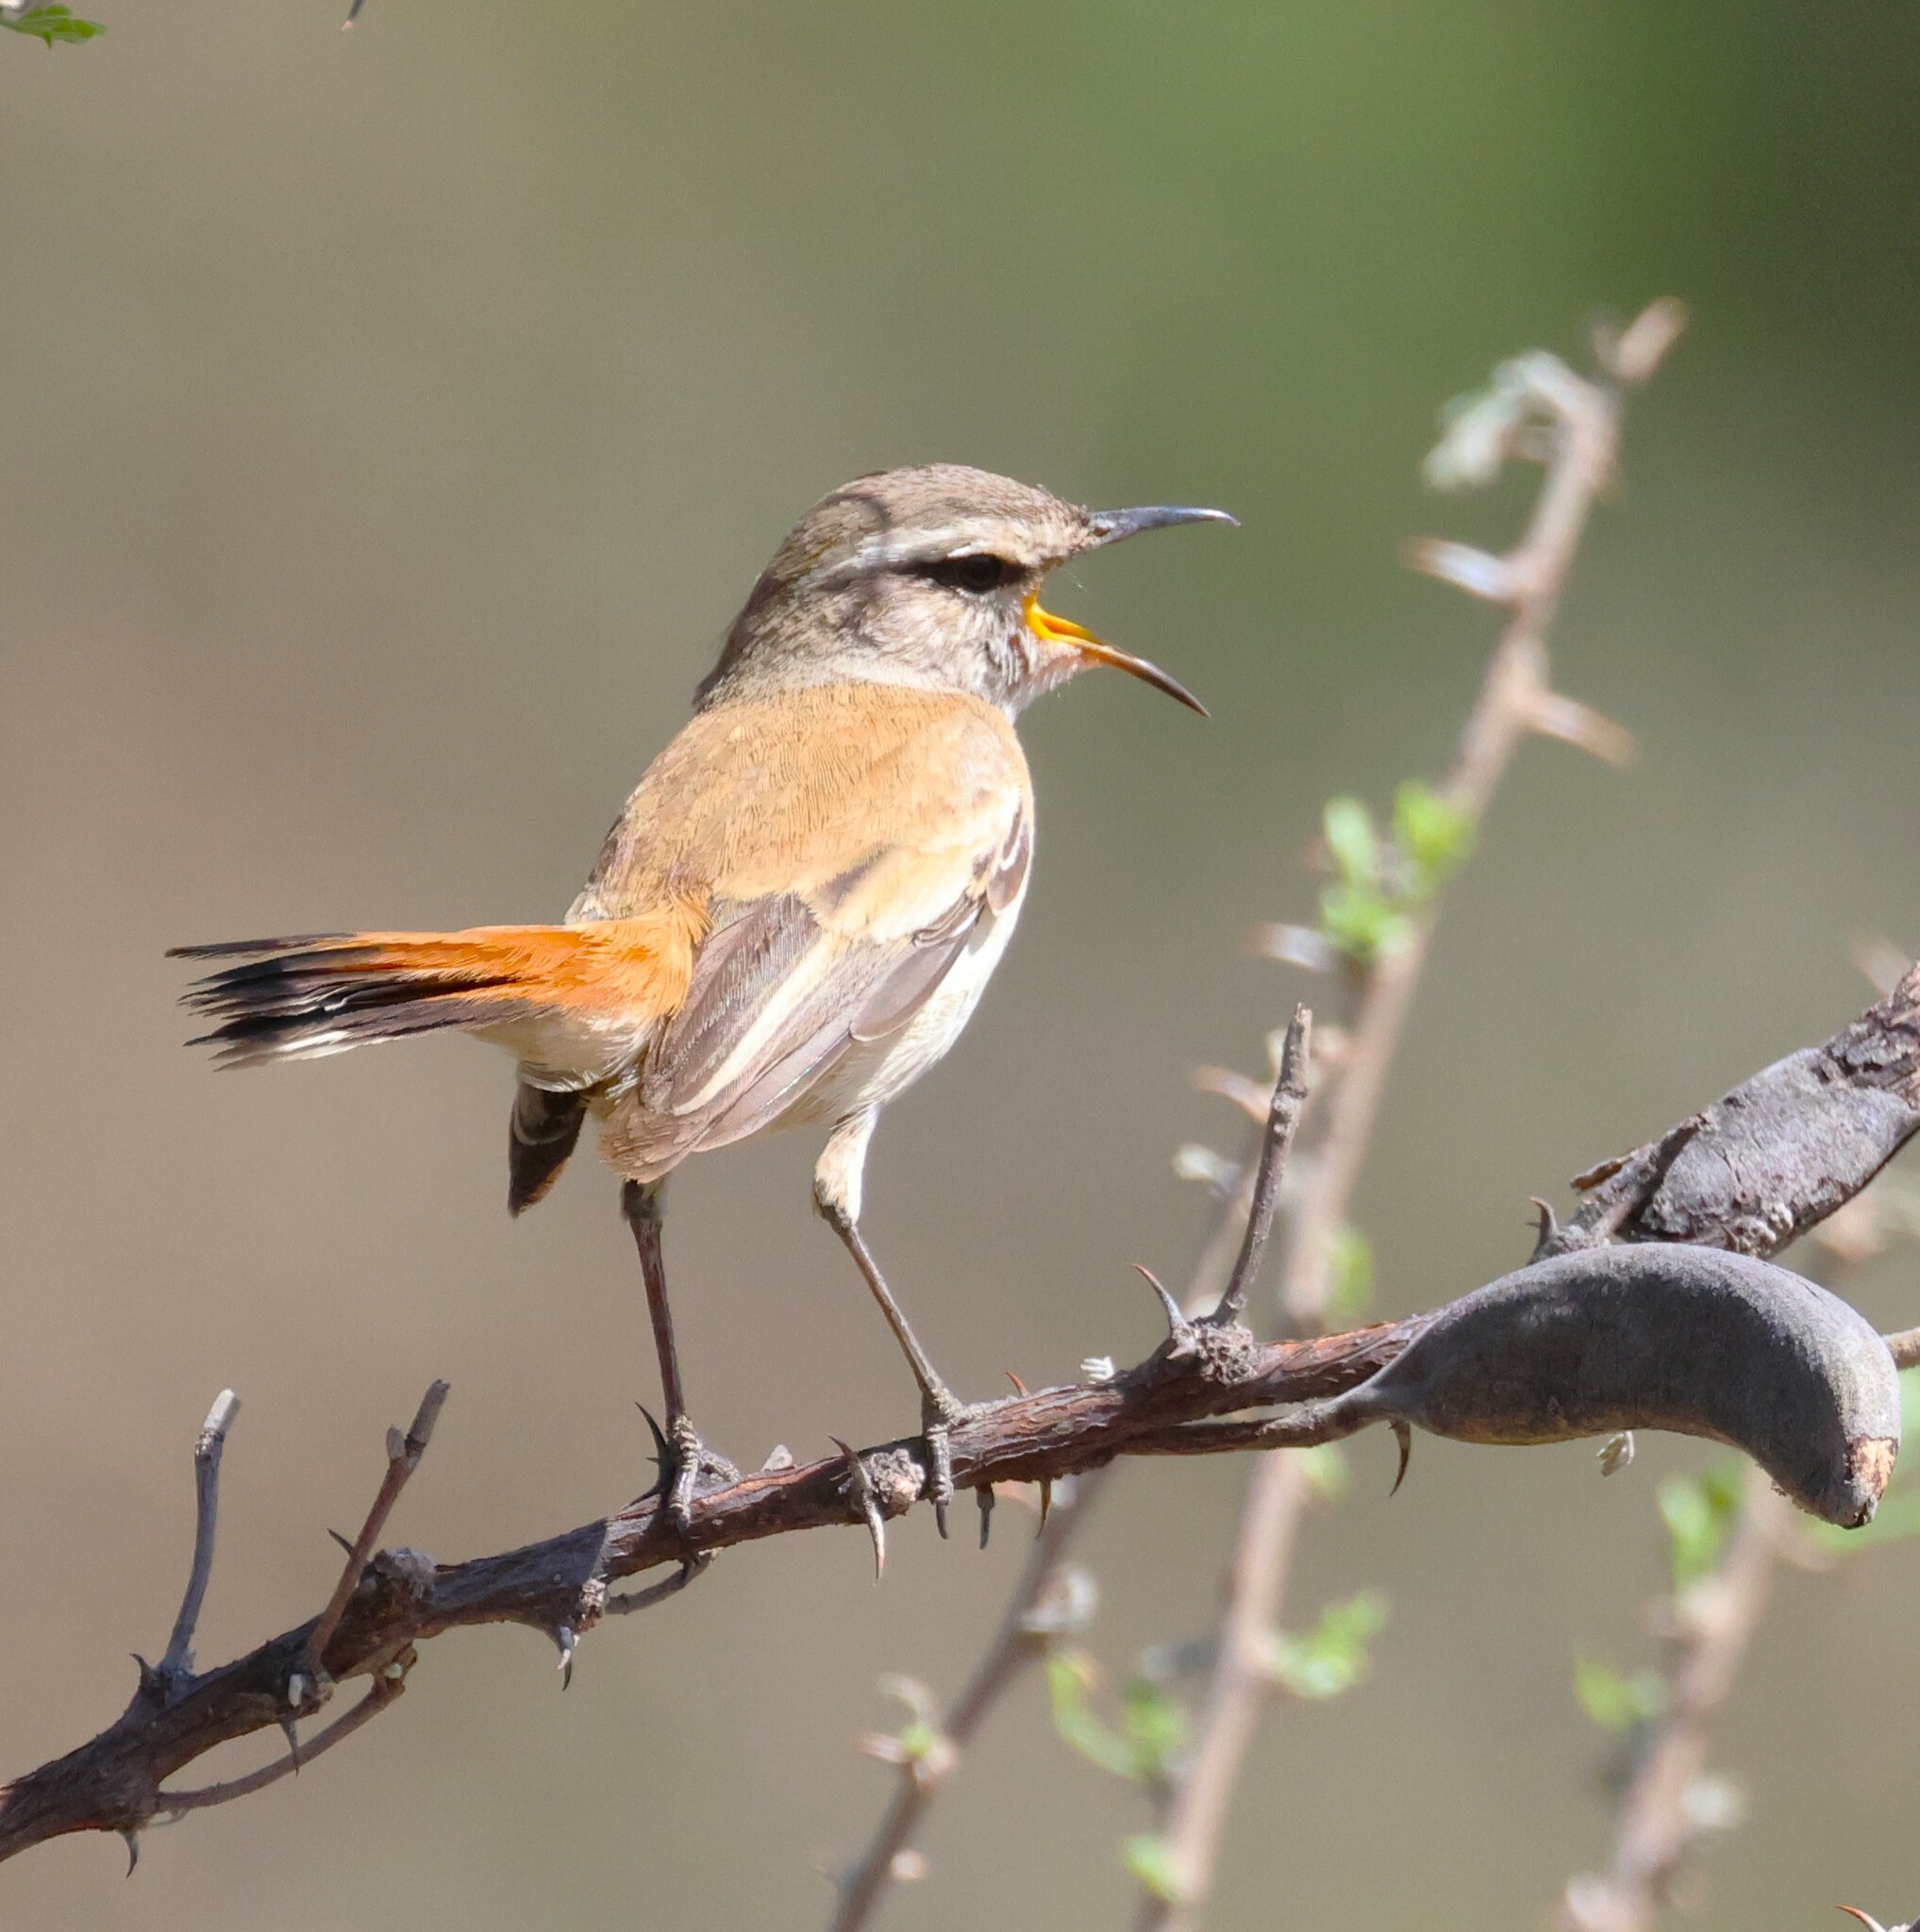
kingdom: Animalia
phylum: Chordata
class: Aves
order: Passeriformes
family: Muscicapidae
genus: Erythropygia
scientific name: Erythropygia paena
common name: Kalahari scrub robin
